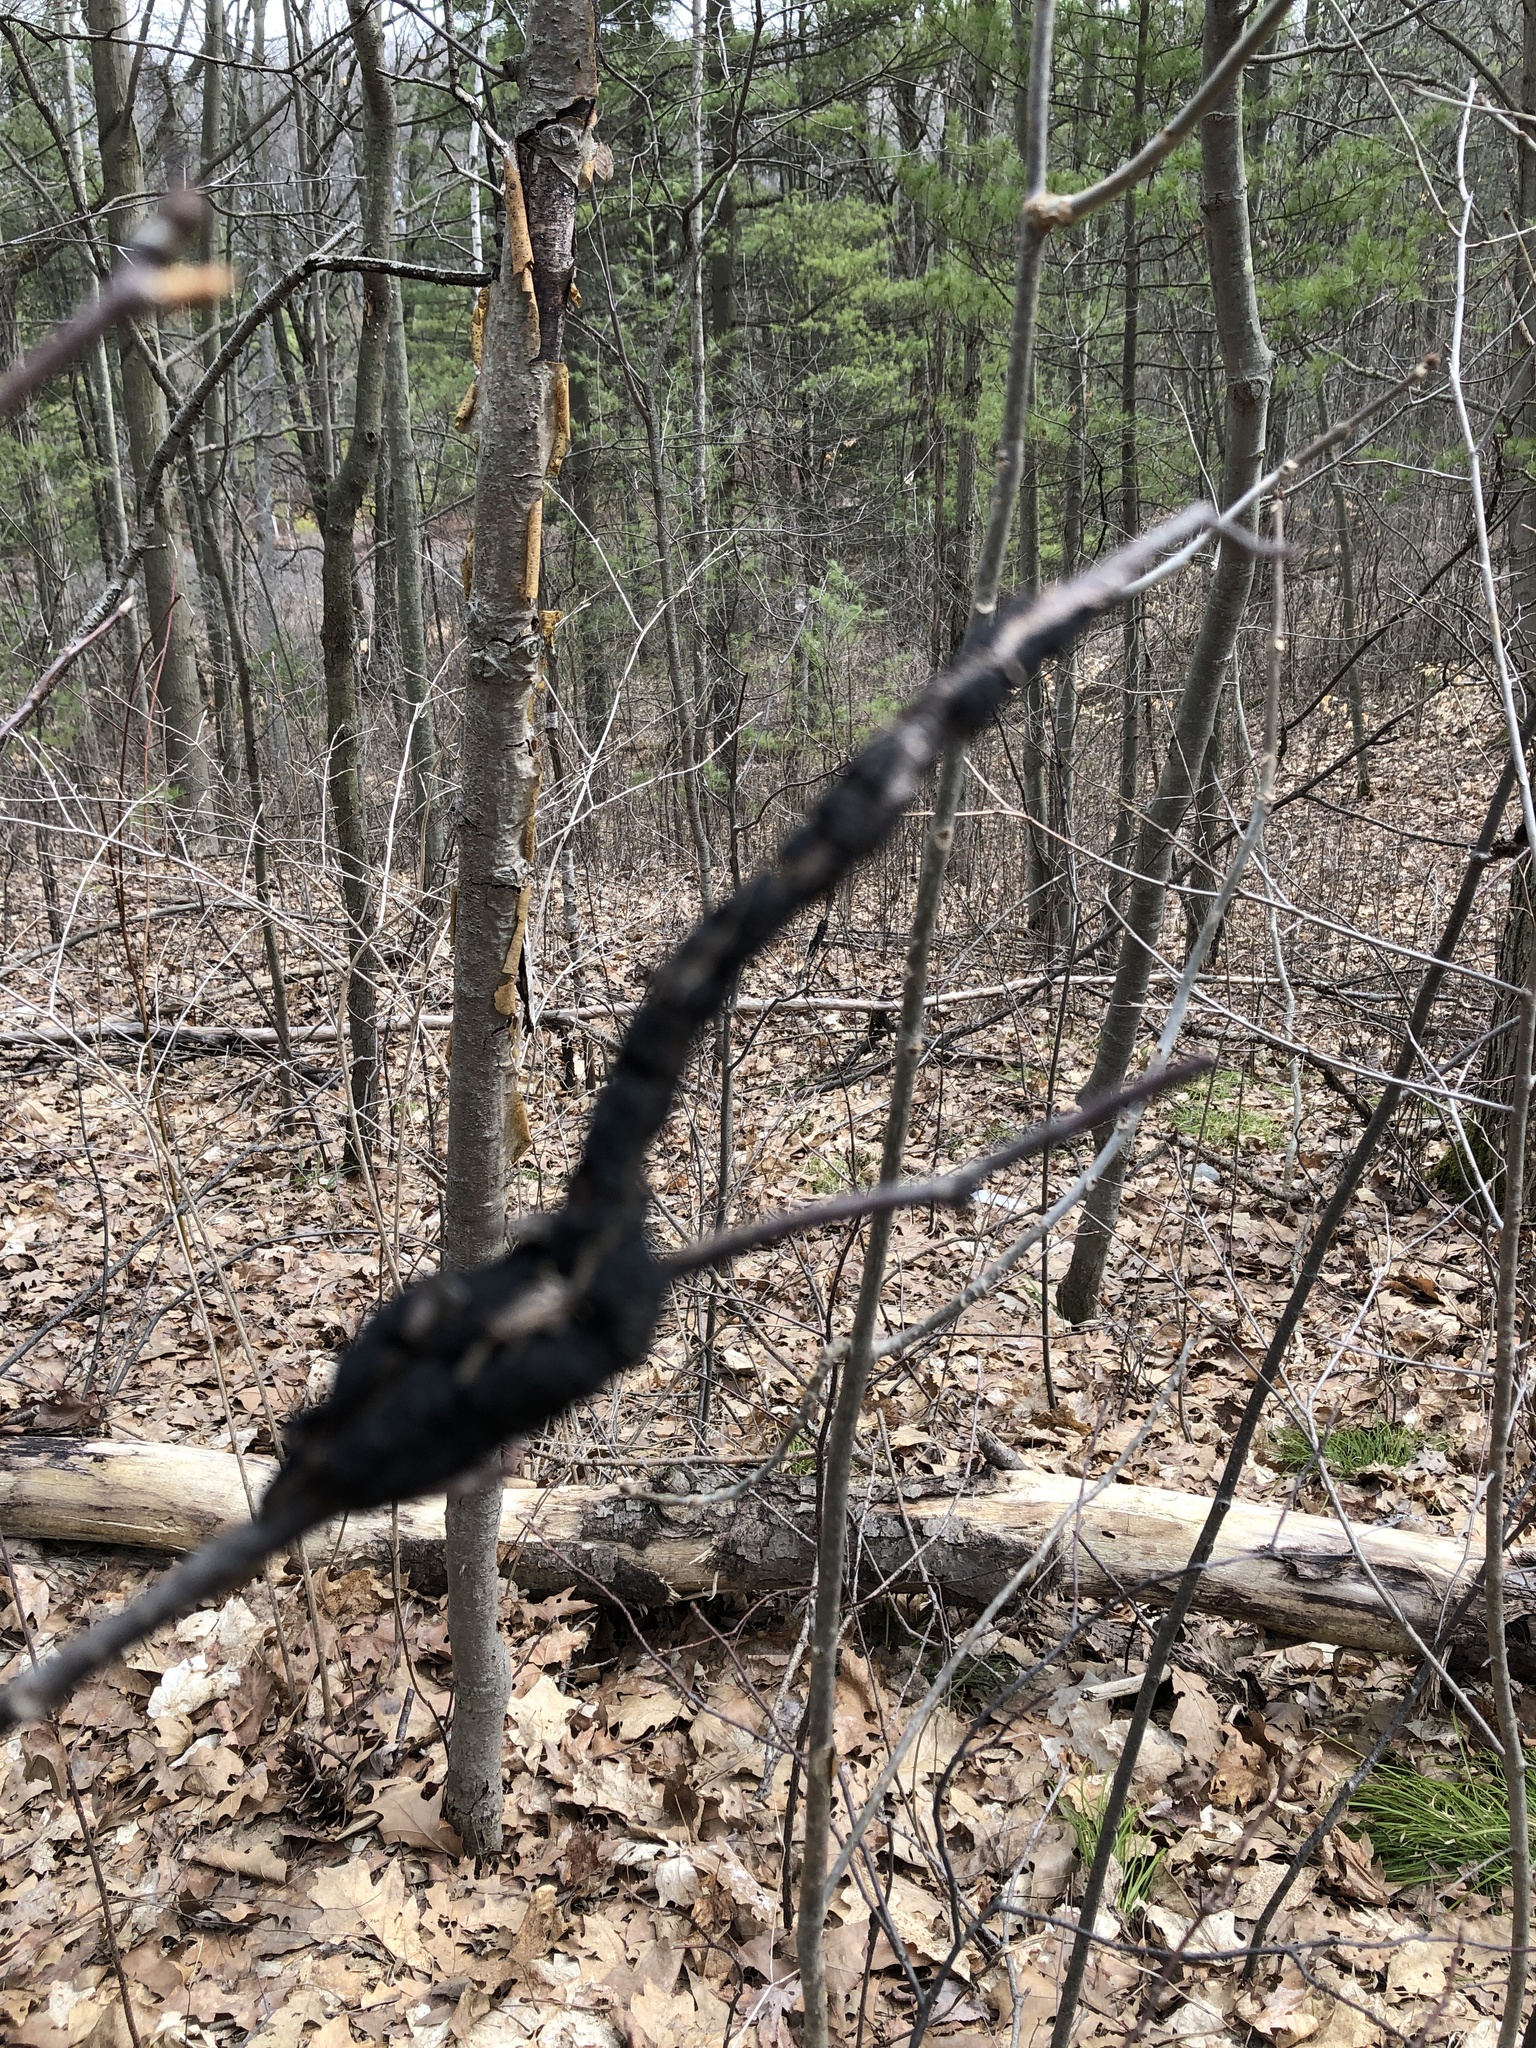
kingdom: Fungi
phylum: Ascomycota
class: Dothideomycetes
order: Venturiales
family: Venturiaceae
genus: Apiosporina
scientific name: Apiosporina morbosa
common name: Black knot
